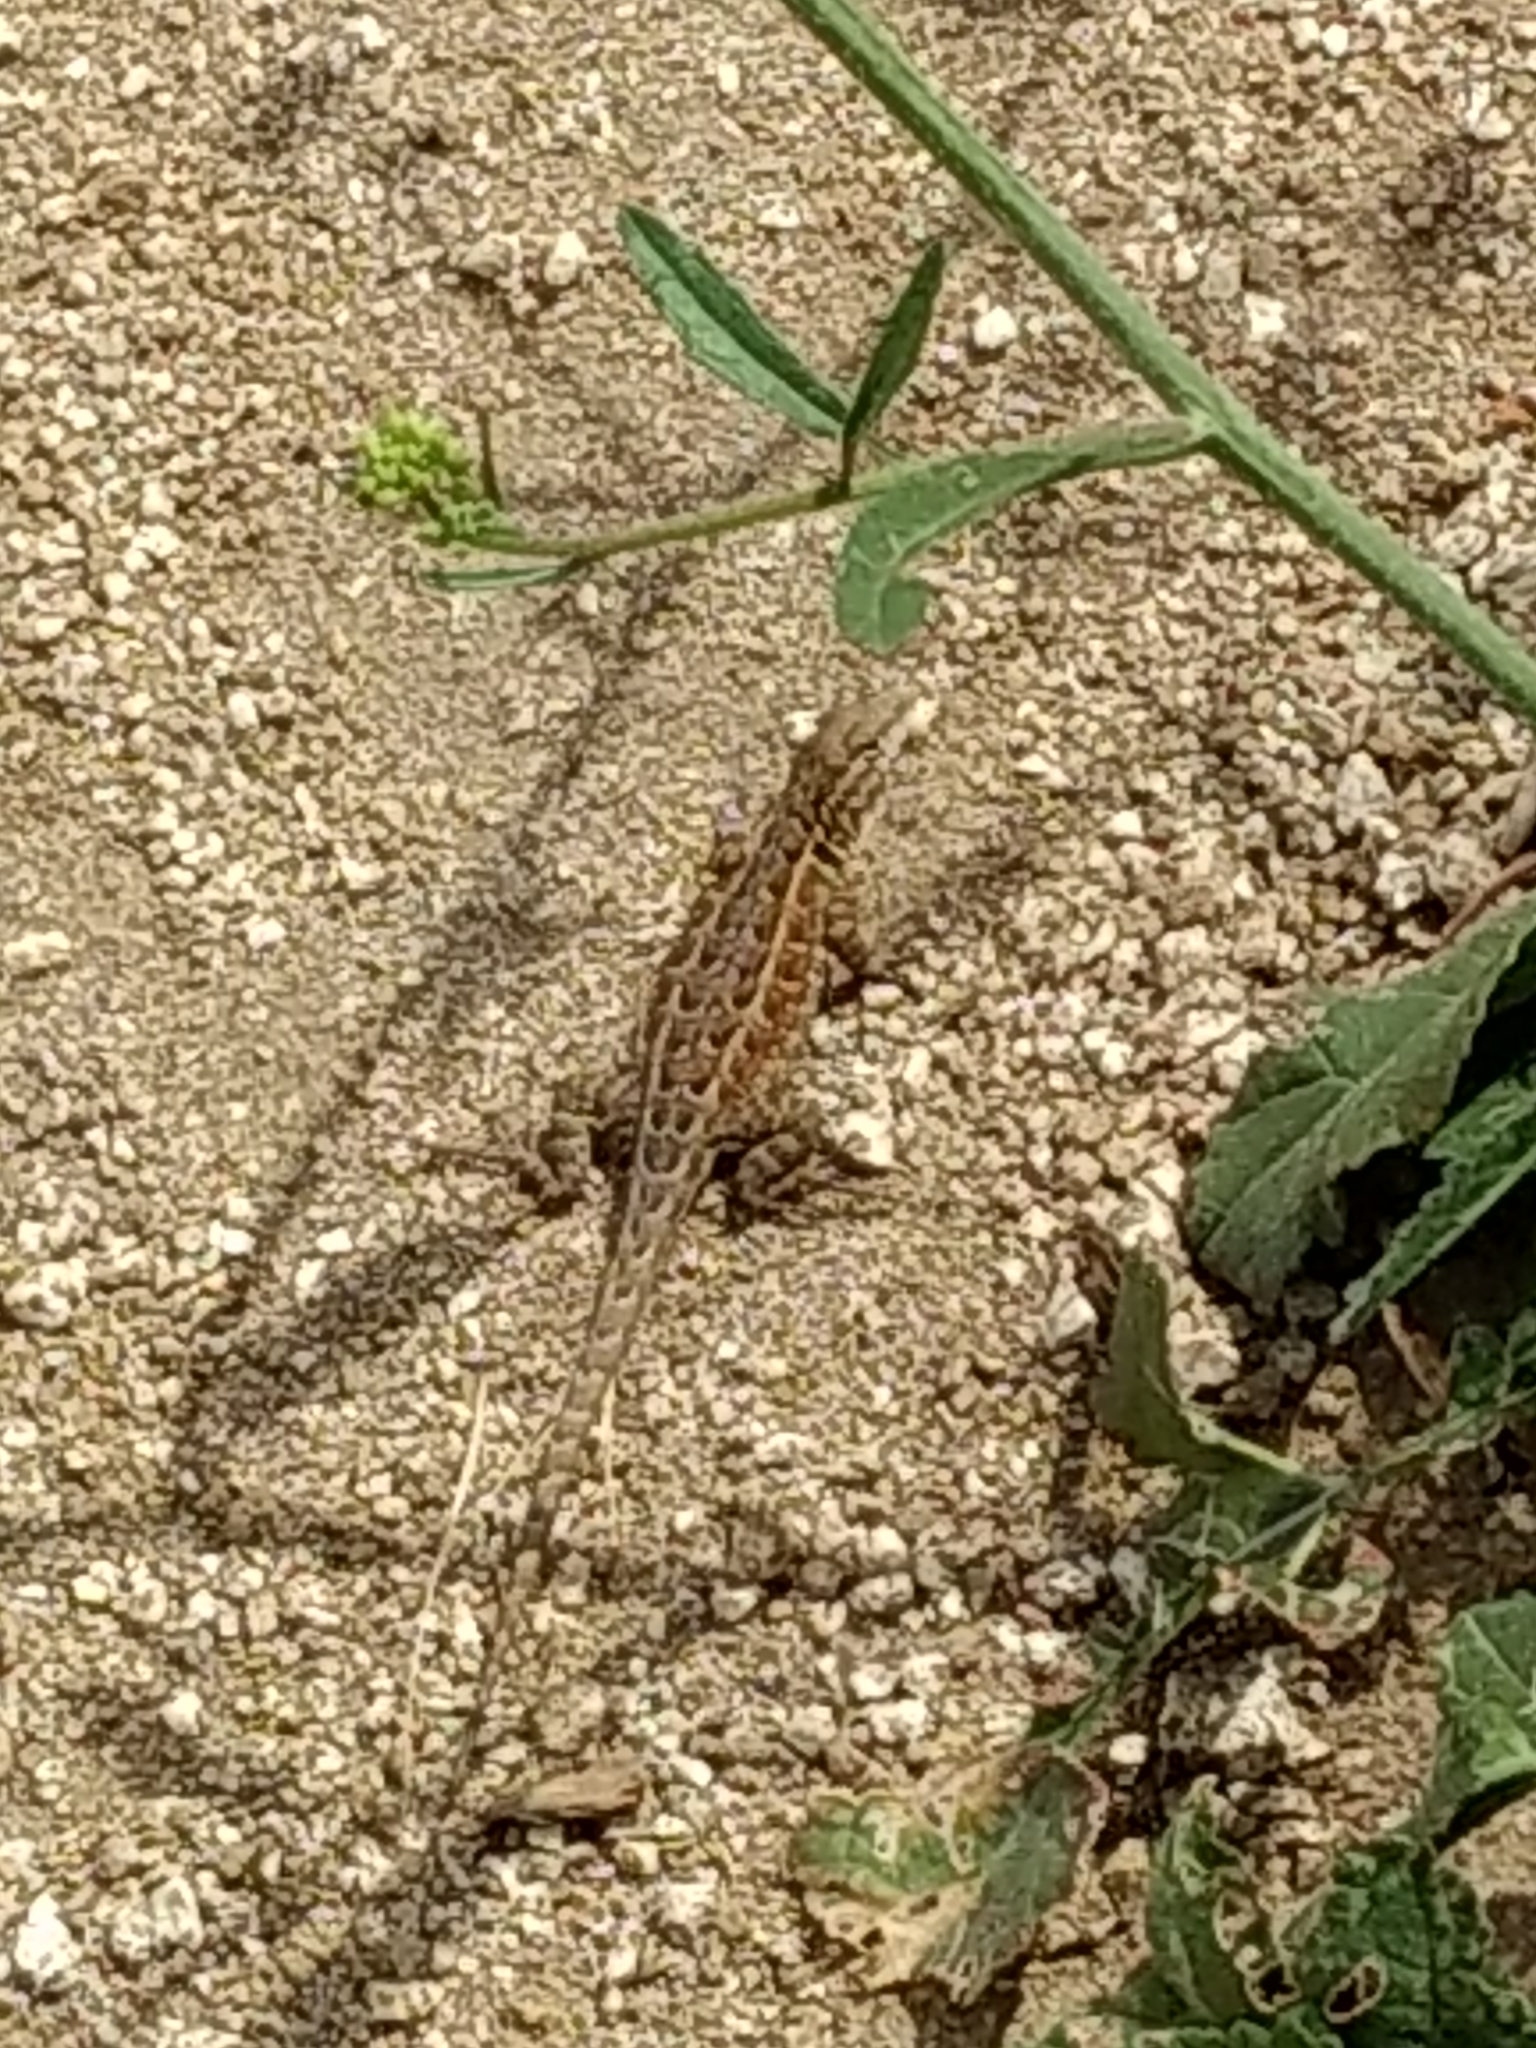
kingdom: Animalia
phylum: Chordata
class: Squamata
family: Phrynosomatidae
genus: Uta
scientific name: Uta stansburiana
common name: Side-blotched lizard
